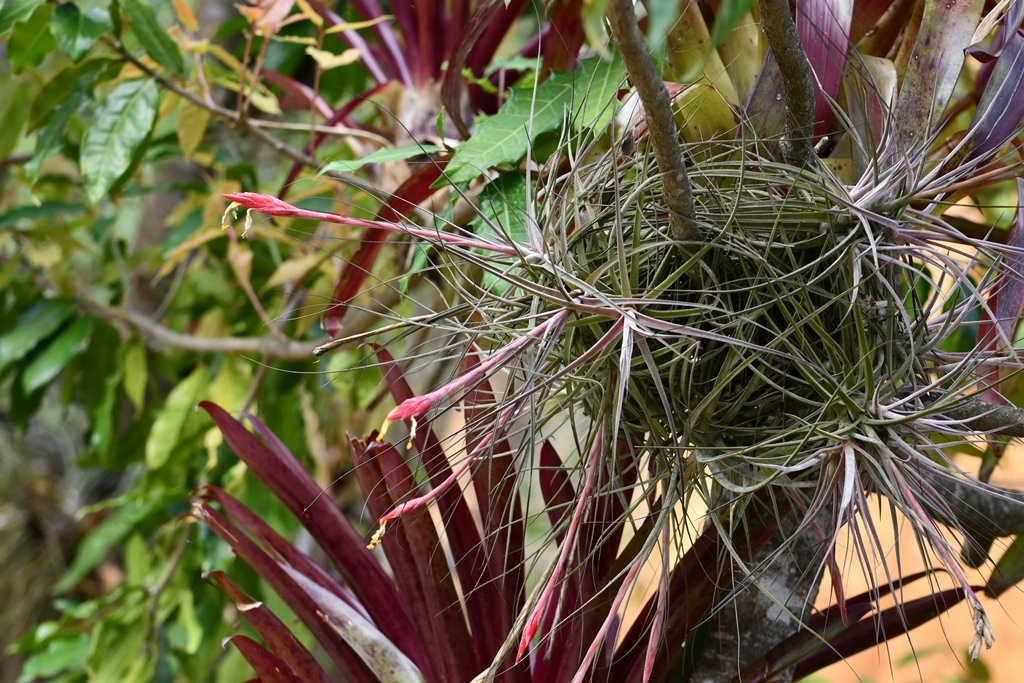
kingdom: Plantae
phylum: Tracheophyta
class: Liliopsida
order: Poales
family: Bromeliaceae
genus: Tillandsia
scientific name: Tillandsia schiedeana
